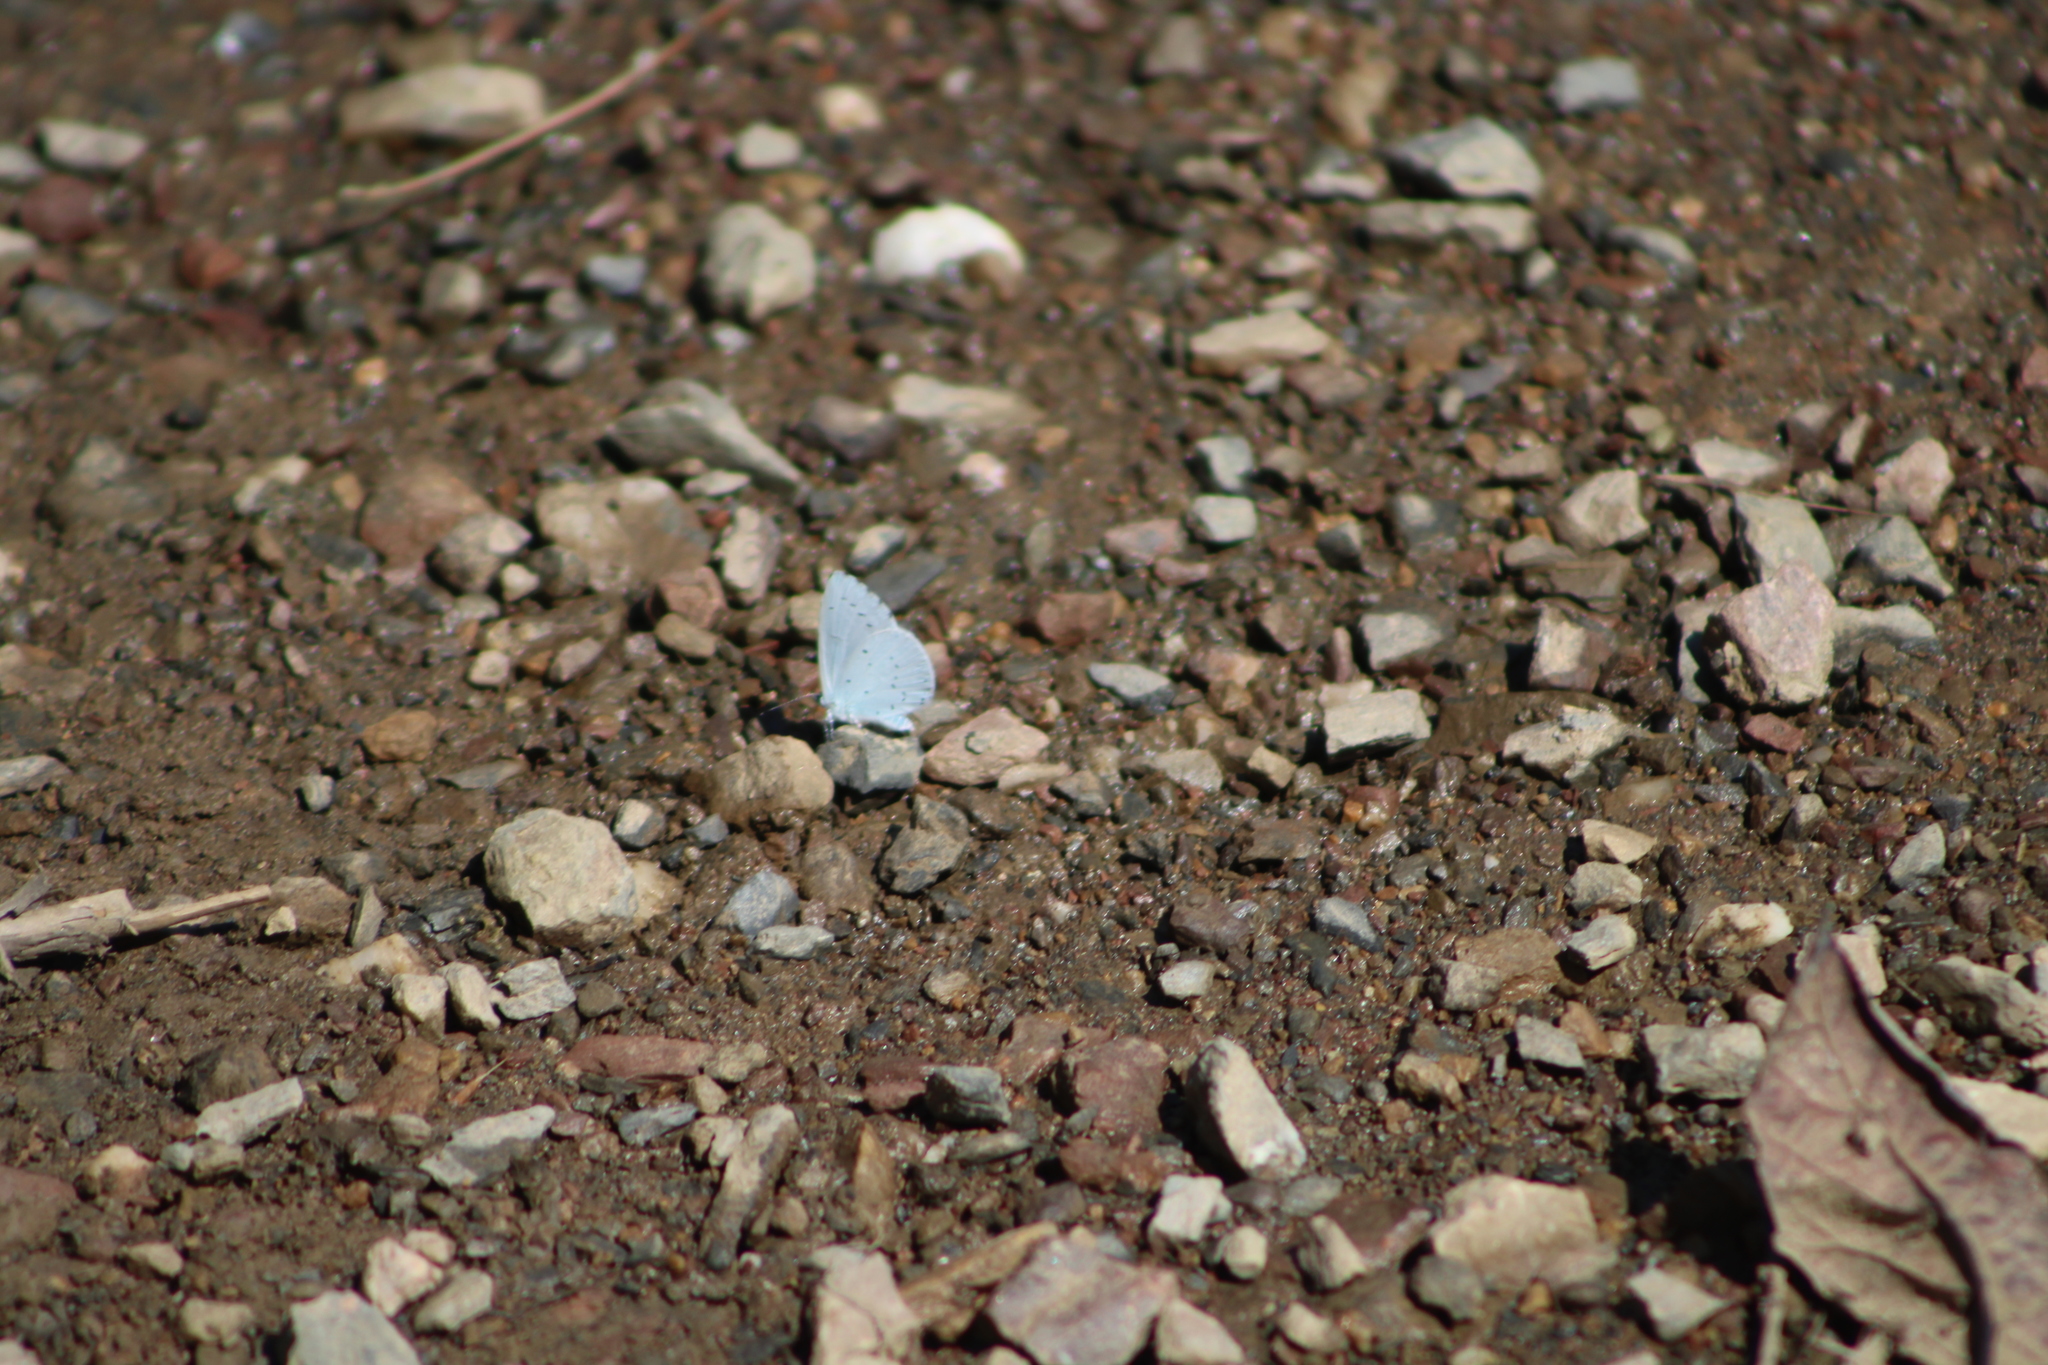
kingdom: Animalia
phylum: Arthropoda
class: Insecta
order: Lepidoptera
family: Lycaenidae
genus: Celastrina
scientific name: Celastrina argiolus
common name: Holly blue
